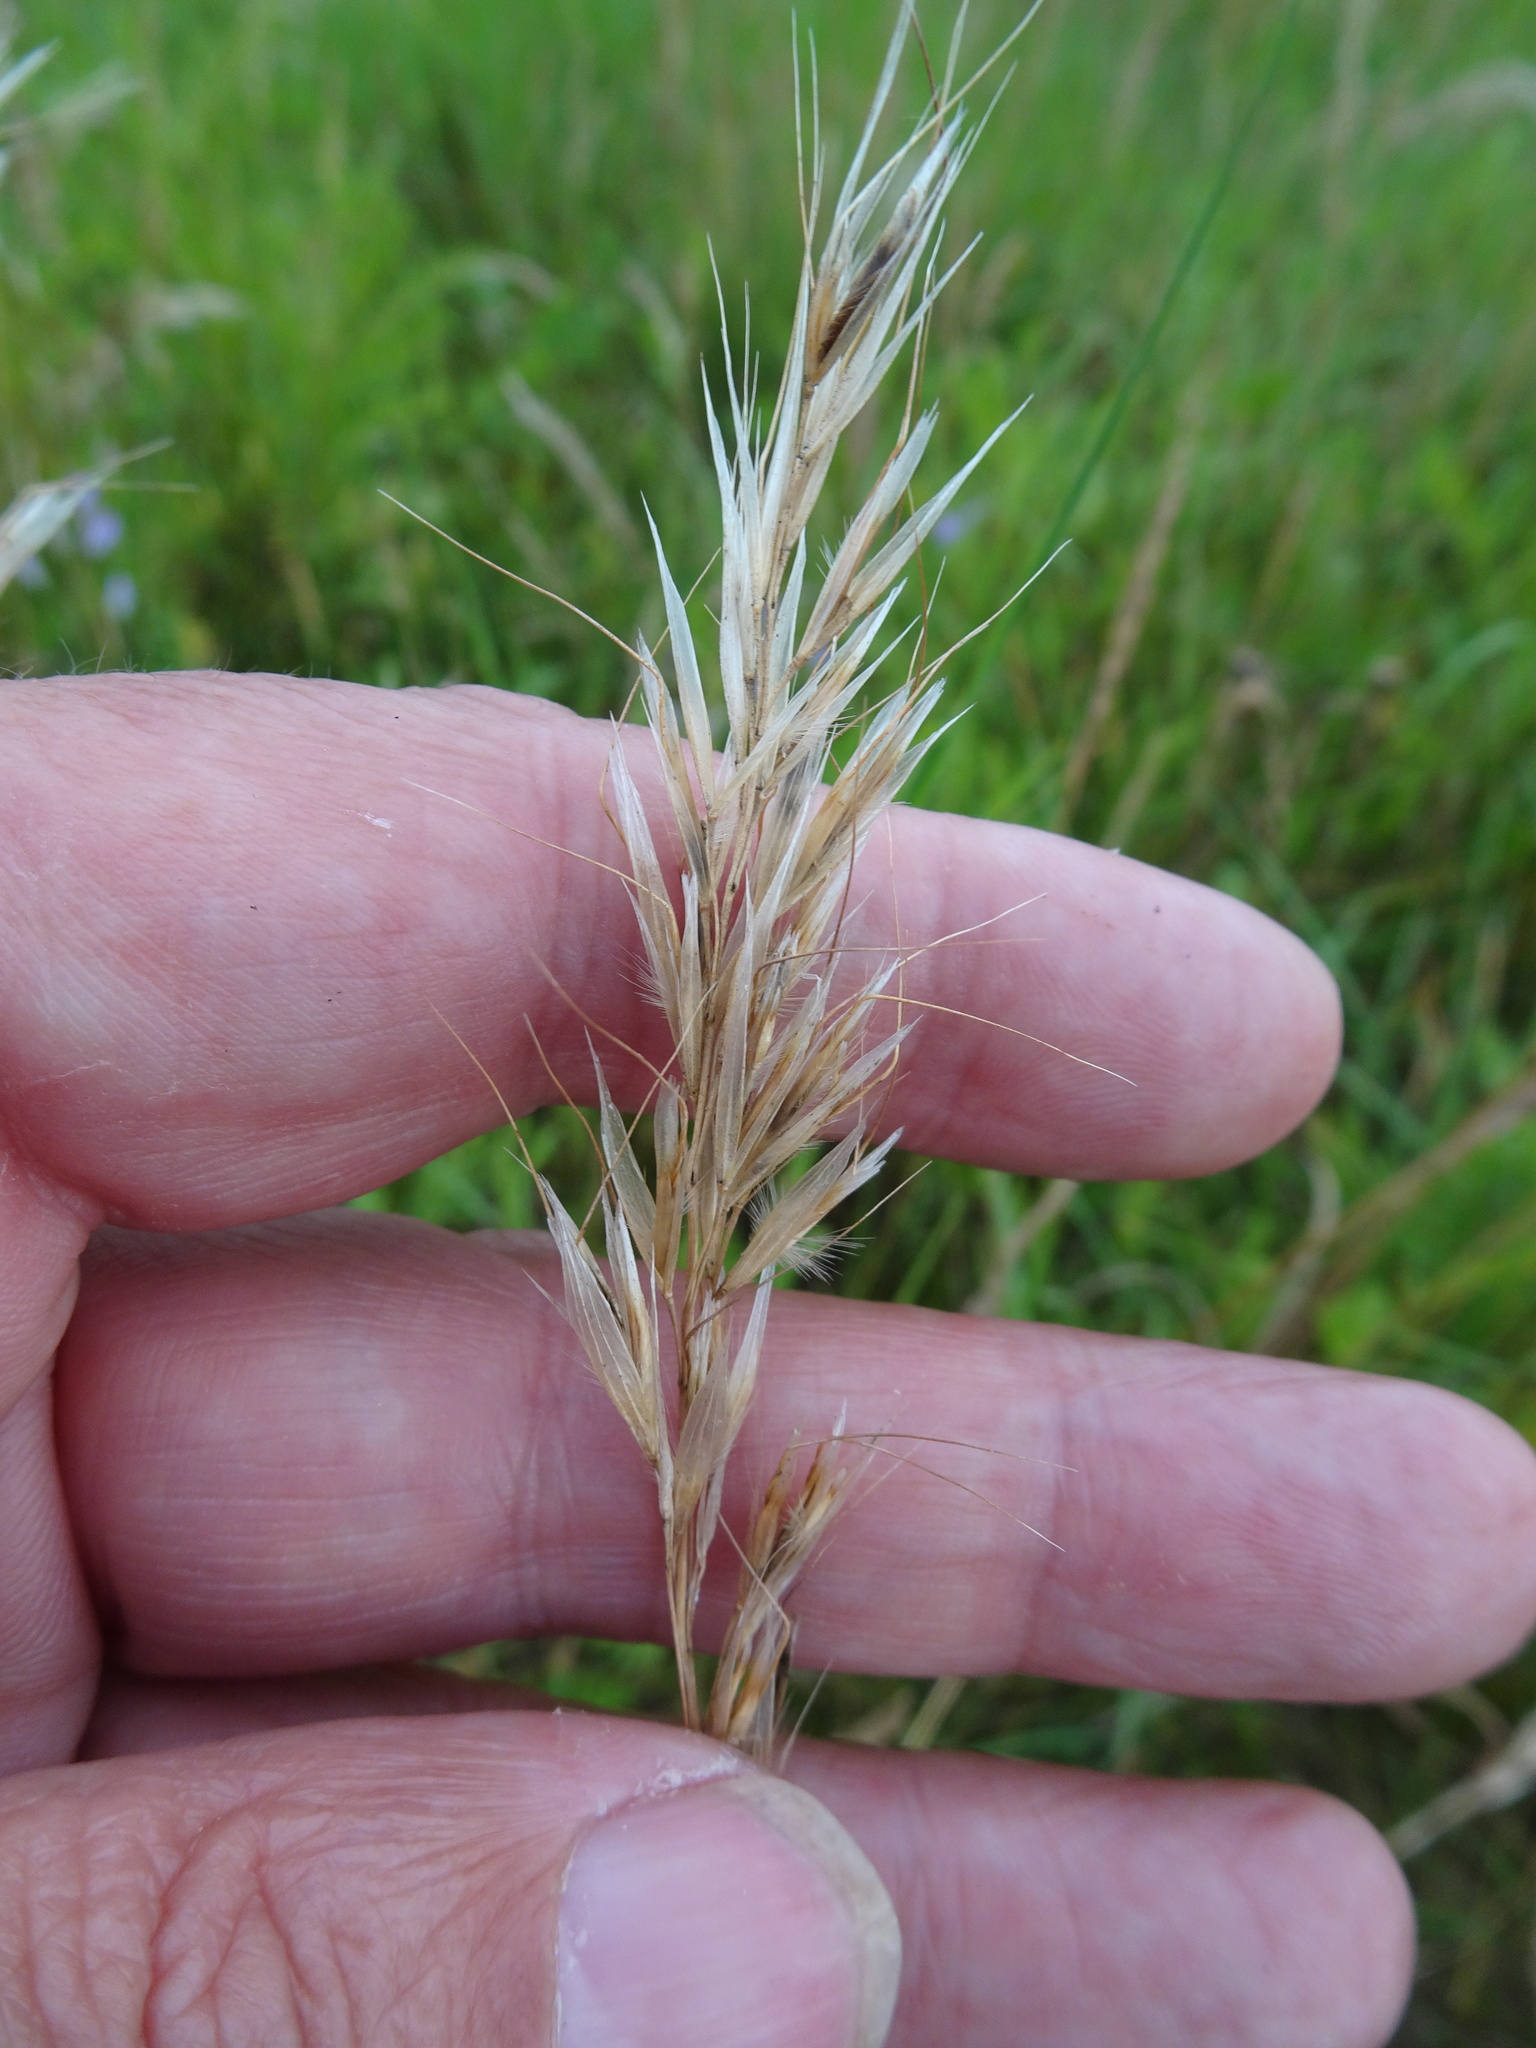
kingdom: Plantae
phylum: Tracheophyta
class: Liliopsida
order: Poales
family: Poaceae
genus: Avenula
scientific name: Avenula pubescens
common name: Downy alpine oatgrass
